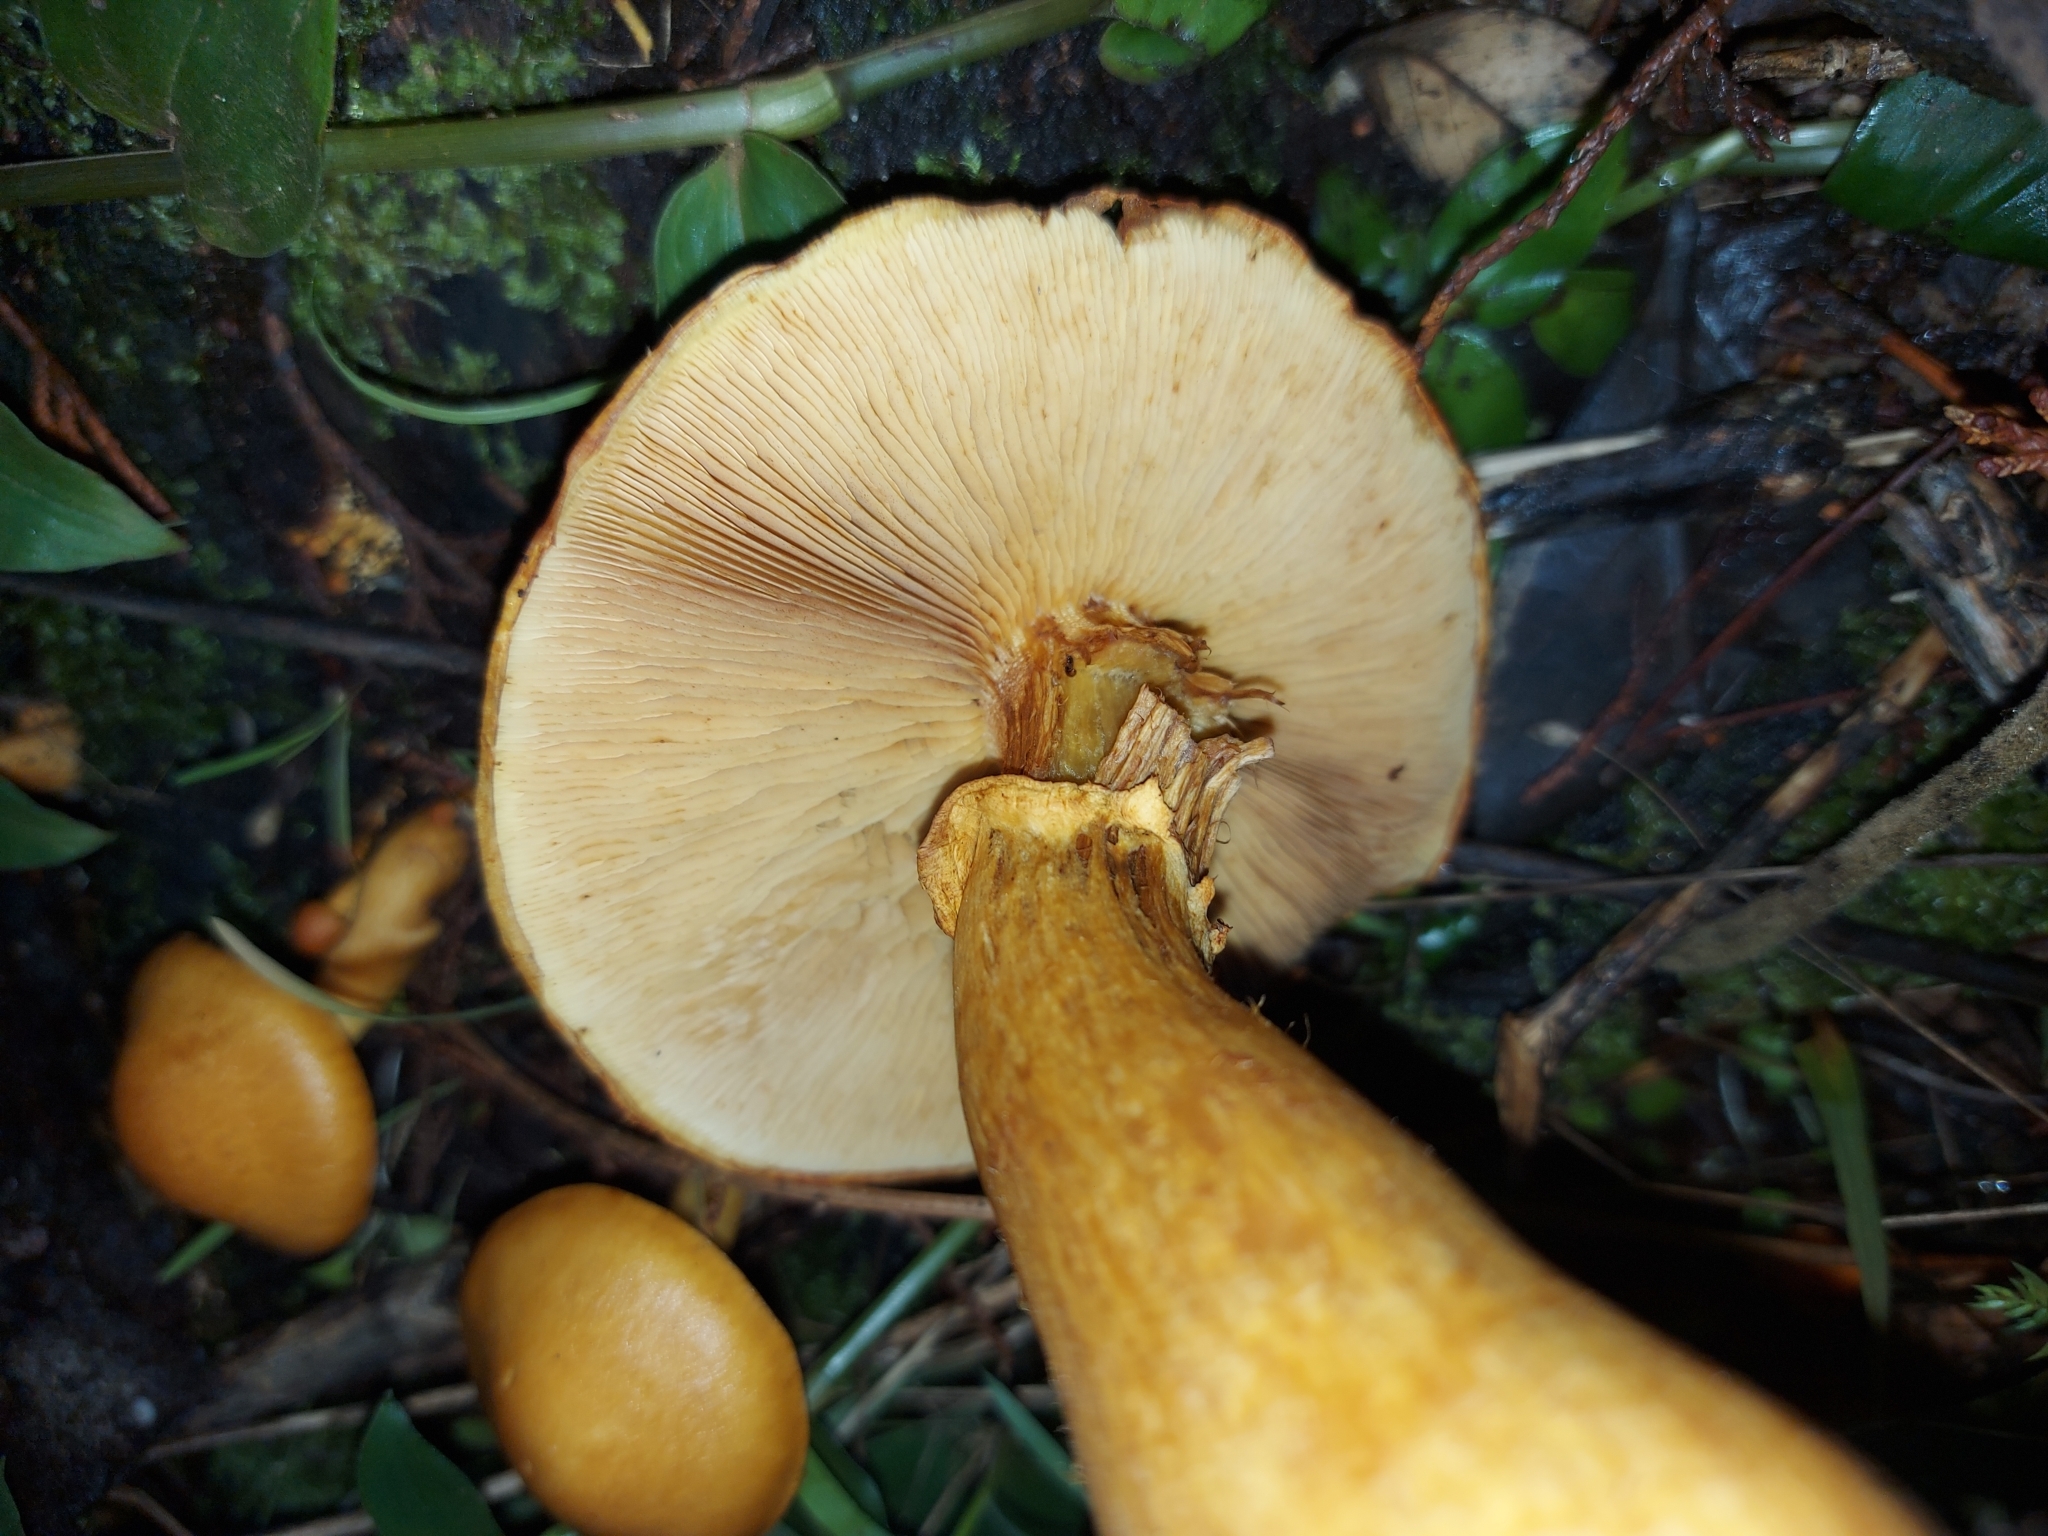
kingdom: Fungi
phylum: Basidiomycota
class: Agaricomycetes
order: Agaricales
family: Hymenogastraceae
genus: Gymnopilus
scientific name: Gymnopilus junonius
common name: Spectacular rustgill
